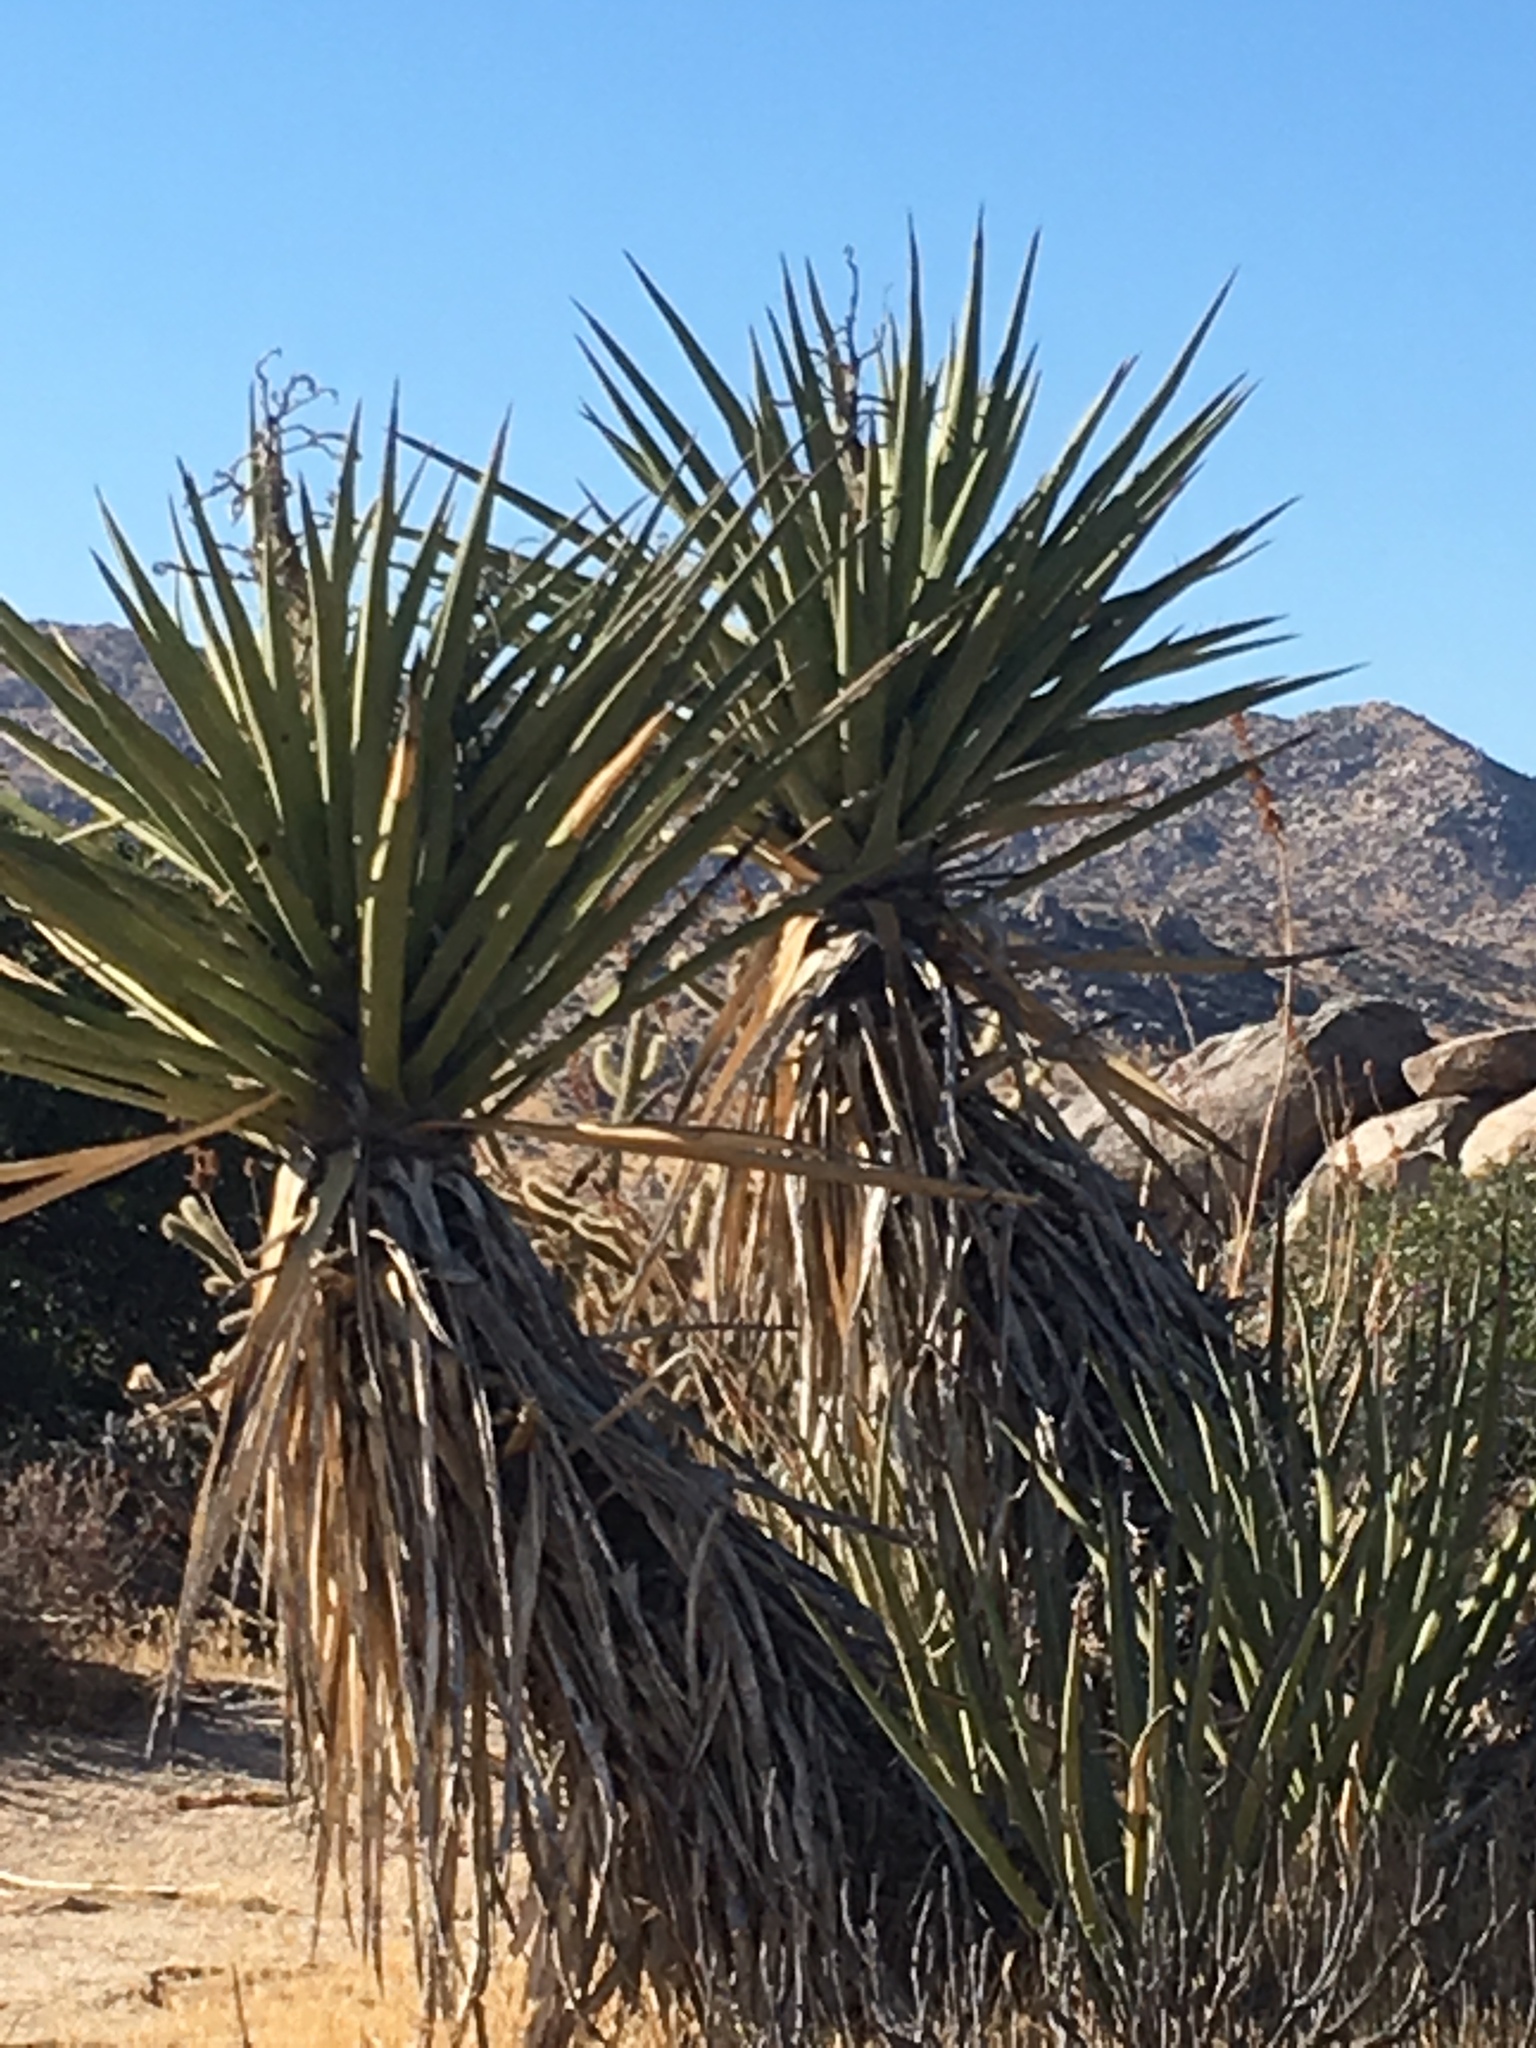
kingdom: Plantae
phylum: Tracheophyta
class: Liliopsida
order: Asparagales
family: Asparagaceae
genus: Yucca
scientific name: Yucca schidigera
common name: Mojave yucca
